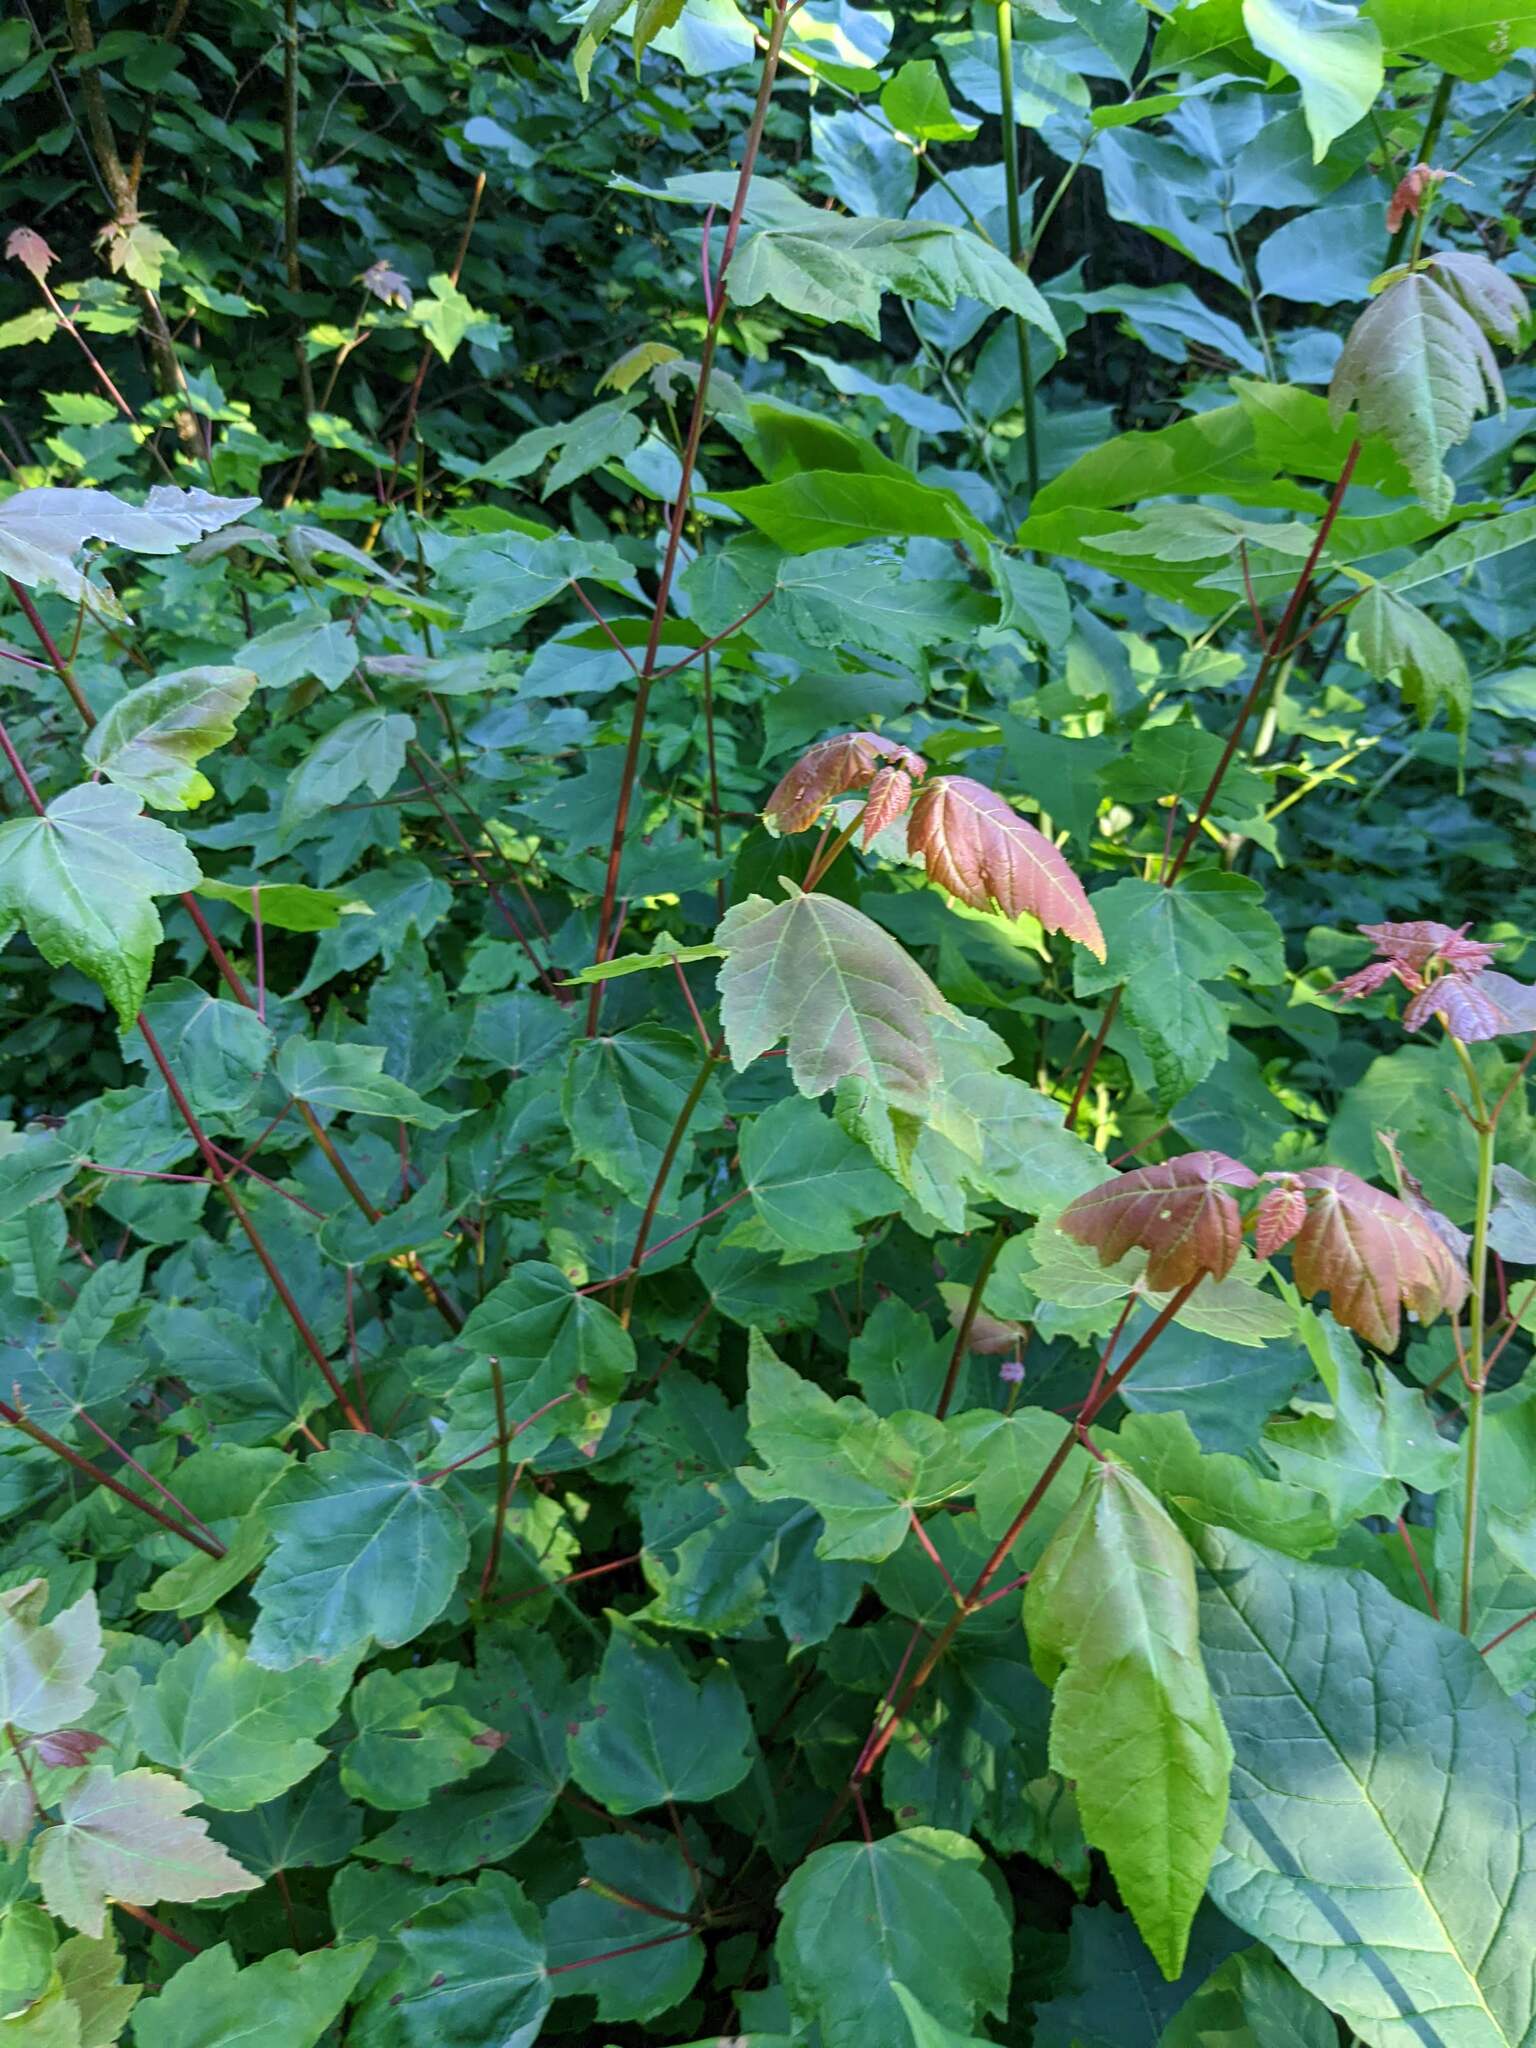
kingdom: Plantae
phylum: Tracheophyta
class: Magnoliopsida
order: Sapindales
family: Sapindaceae
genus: Acer
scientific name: Acer rubrum
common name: Red maple
